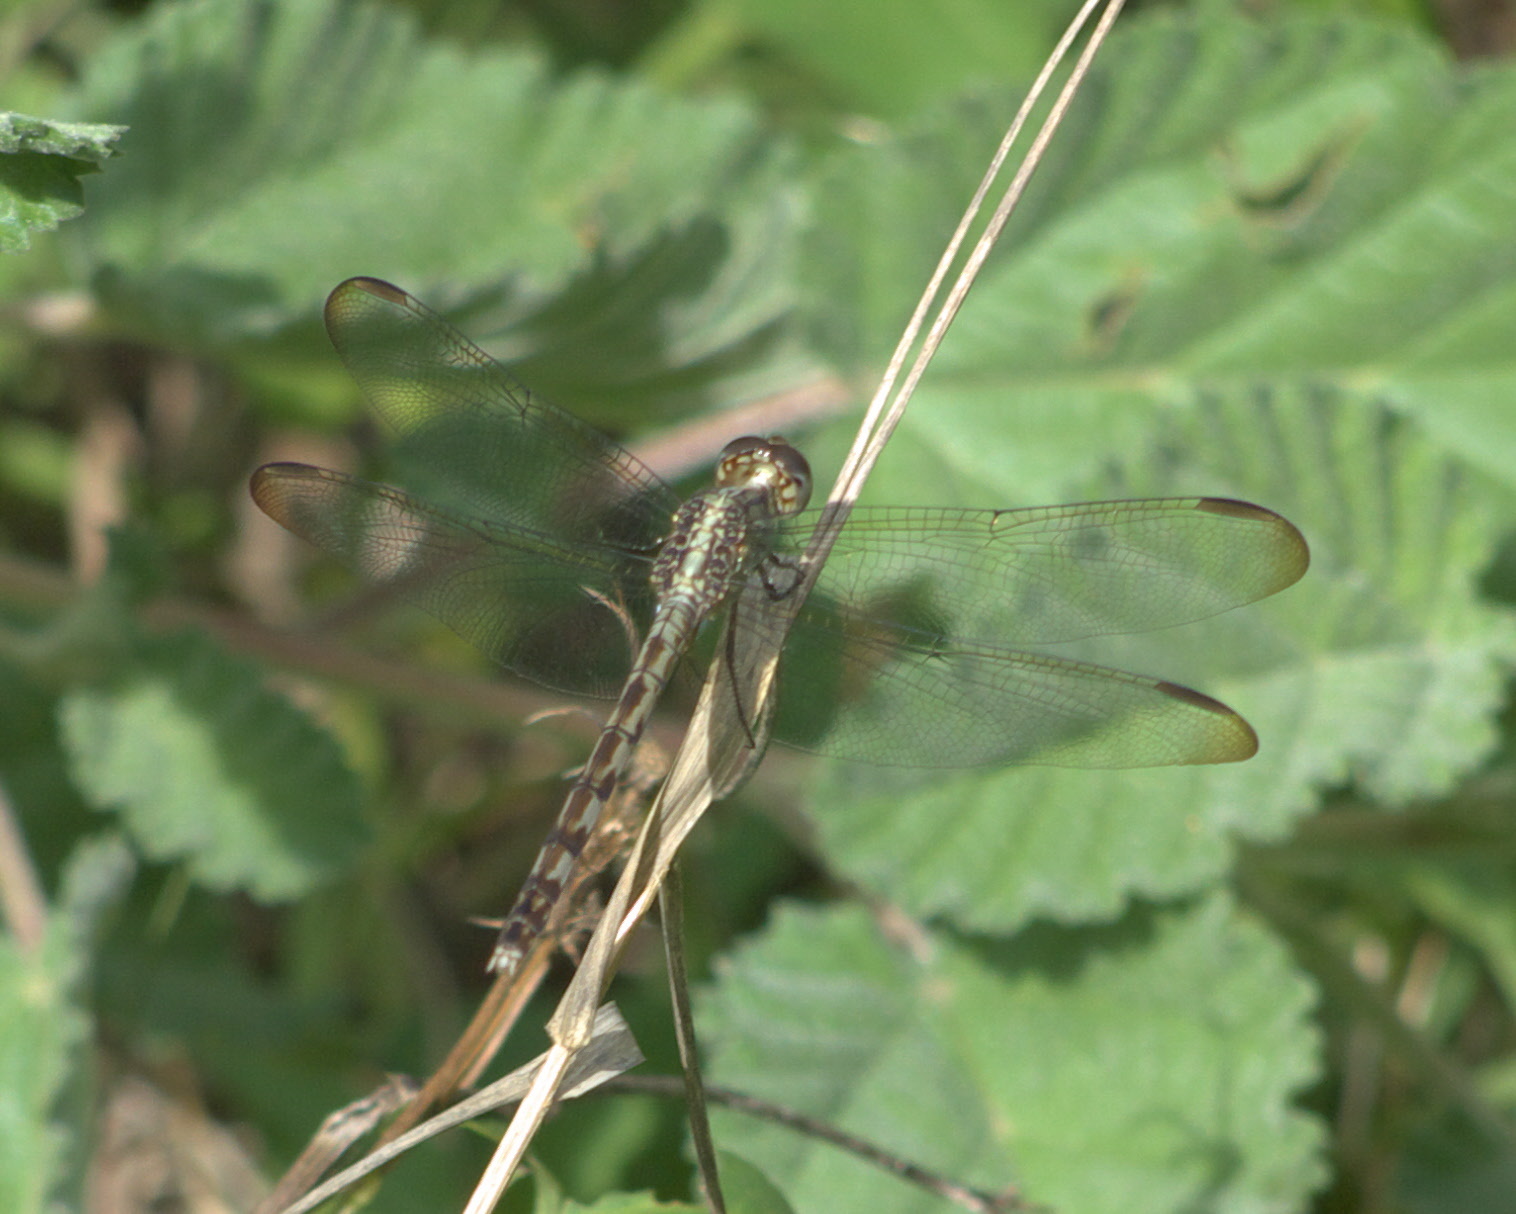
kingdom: Animalia
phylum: Arthropoda
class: Insecta
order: Odonata
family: Libellulidae
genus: Erythrodiplax
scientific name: Erythrodiplax umbrata
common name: Band-winged dragonlet
